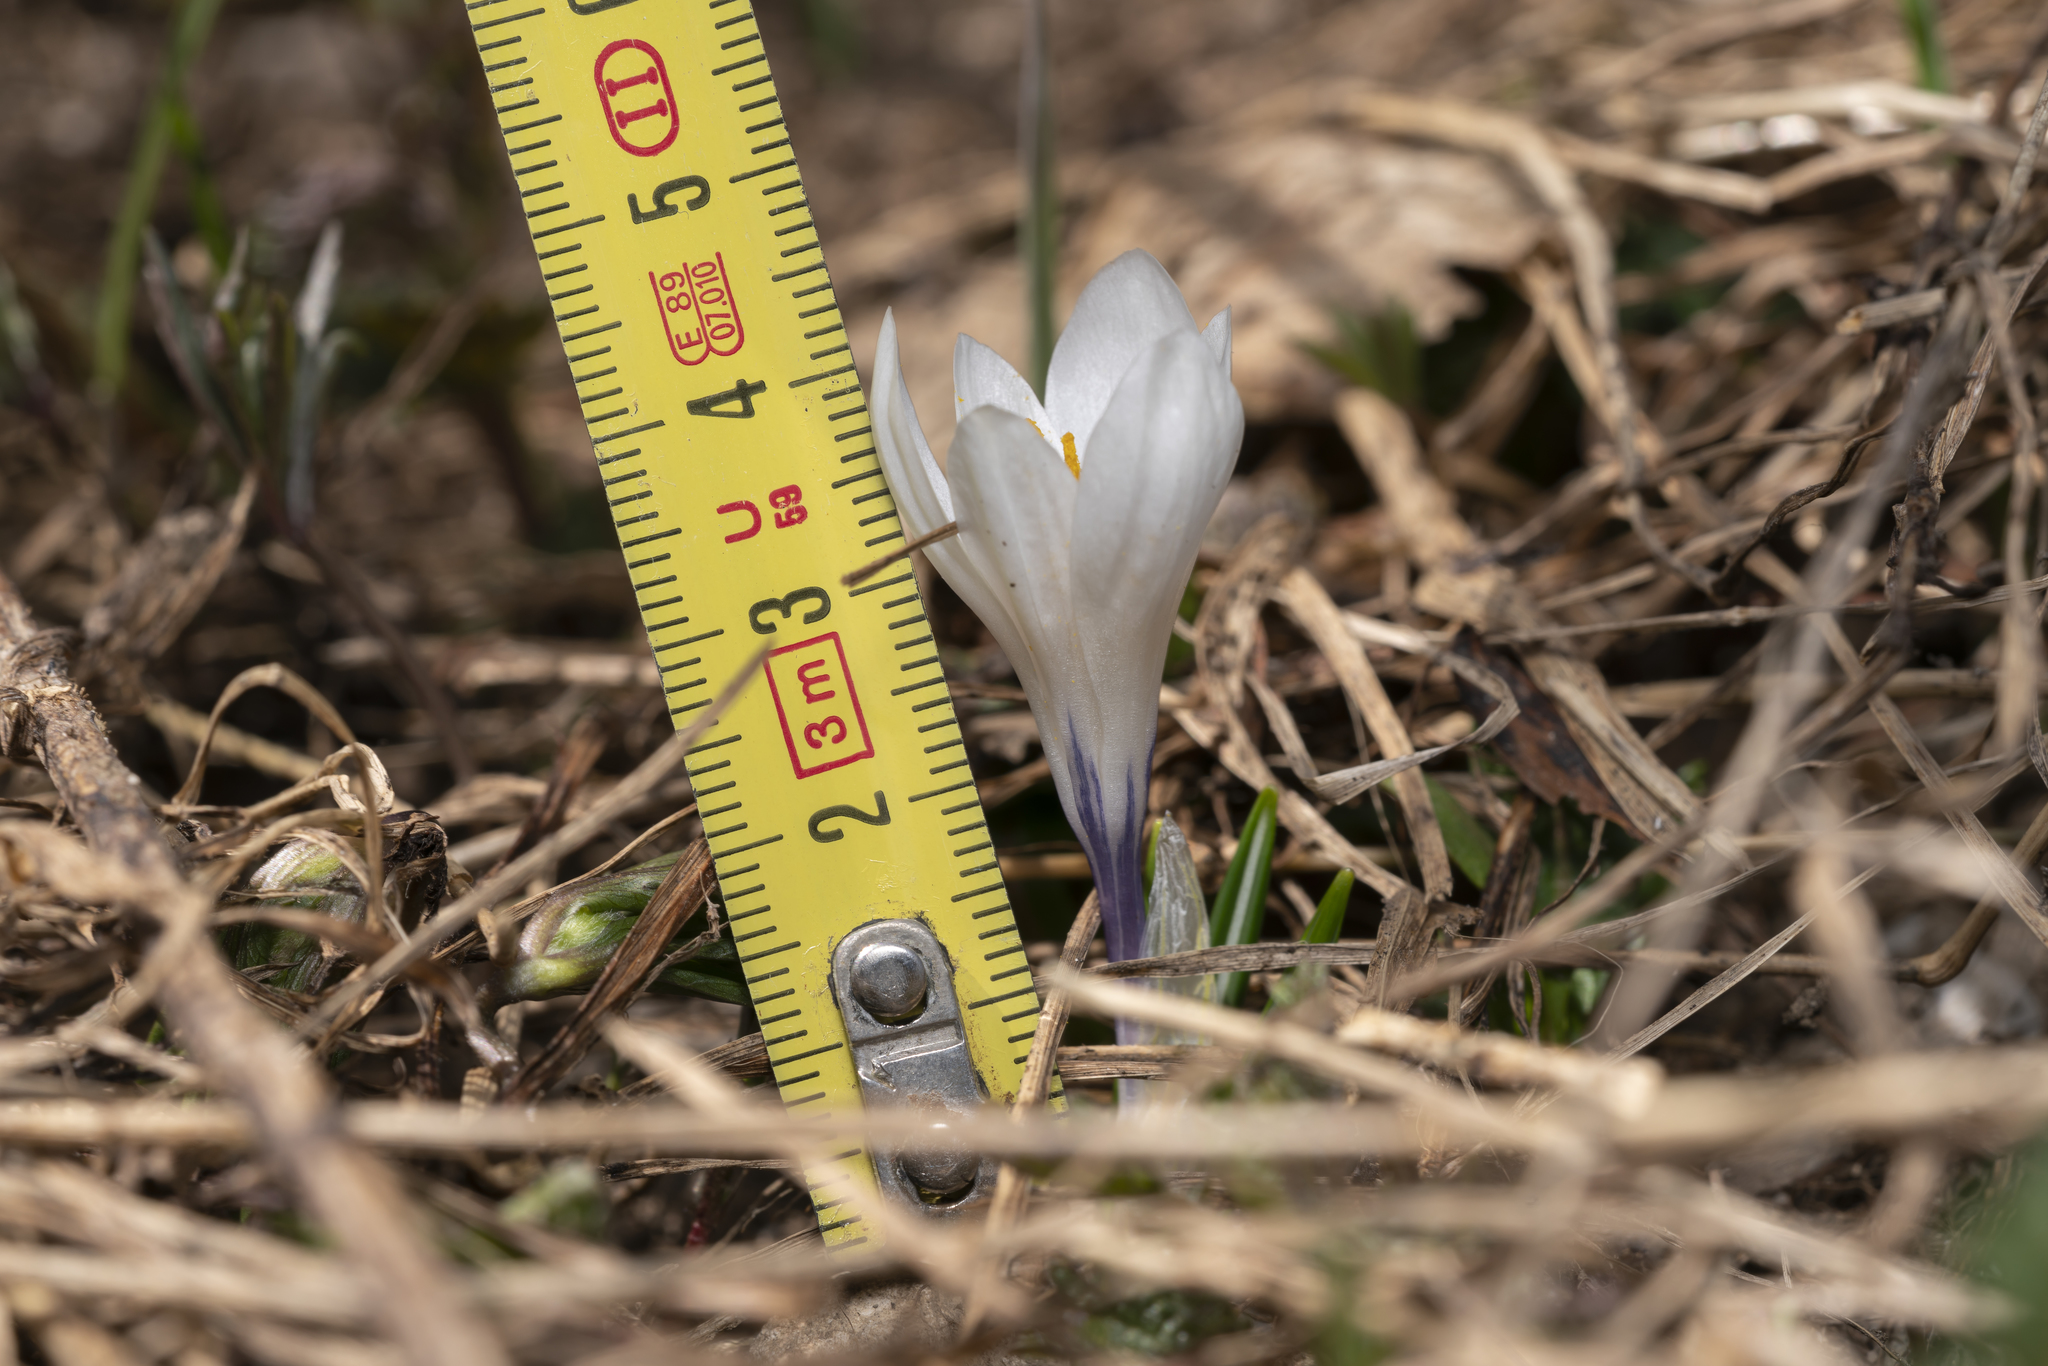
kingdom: Plantae
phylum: Tracheophyta
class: Liliopsida
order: Asparagales
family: Iridaceae
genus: Crocus
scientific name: Crocus vernus
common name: Spring crocus
